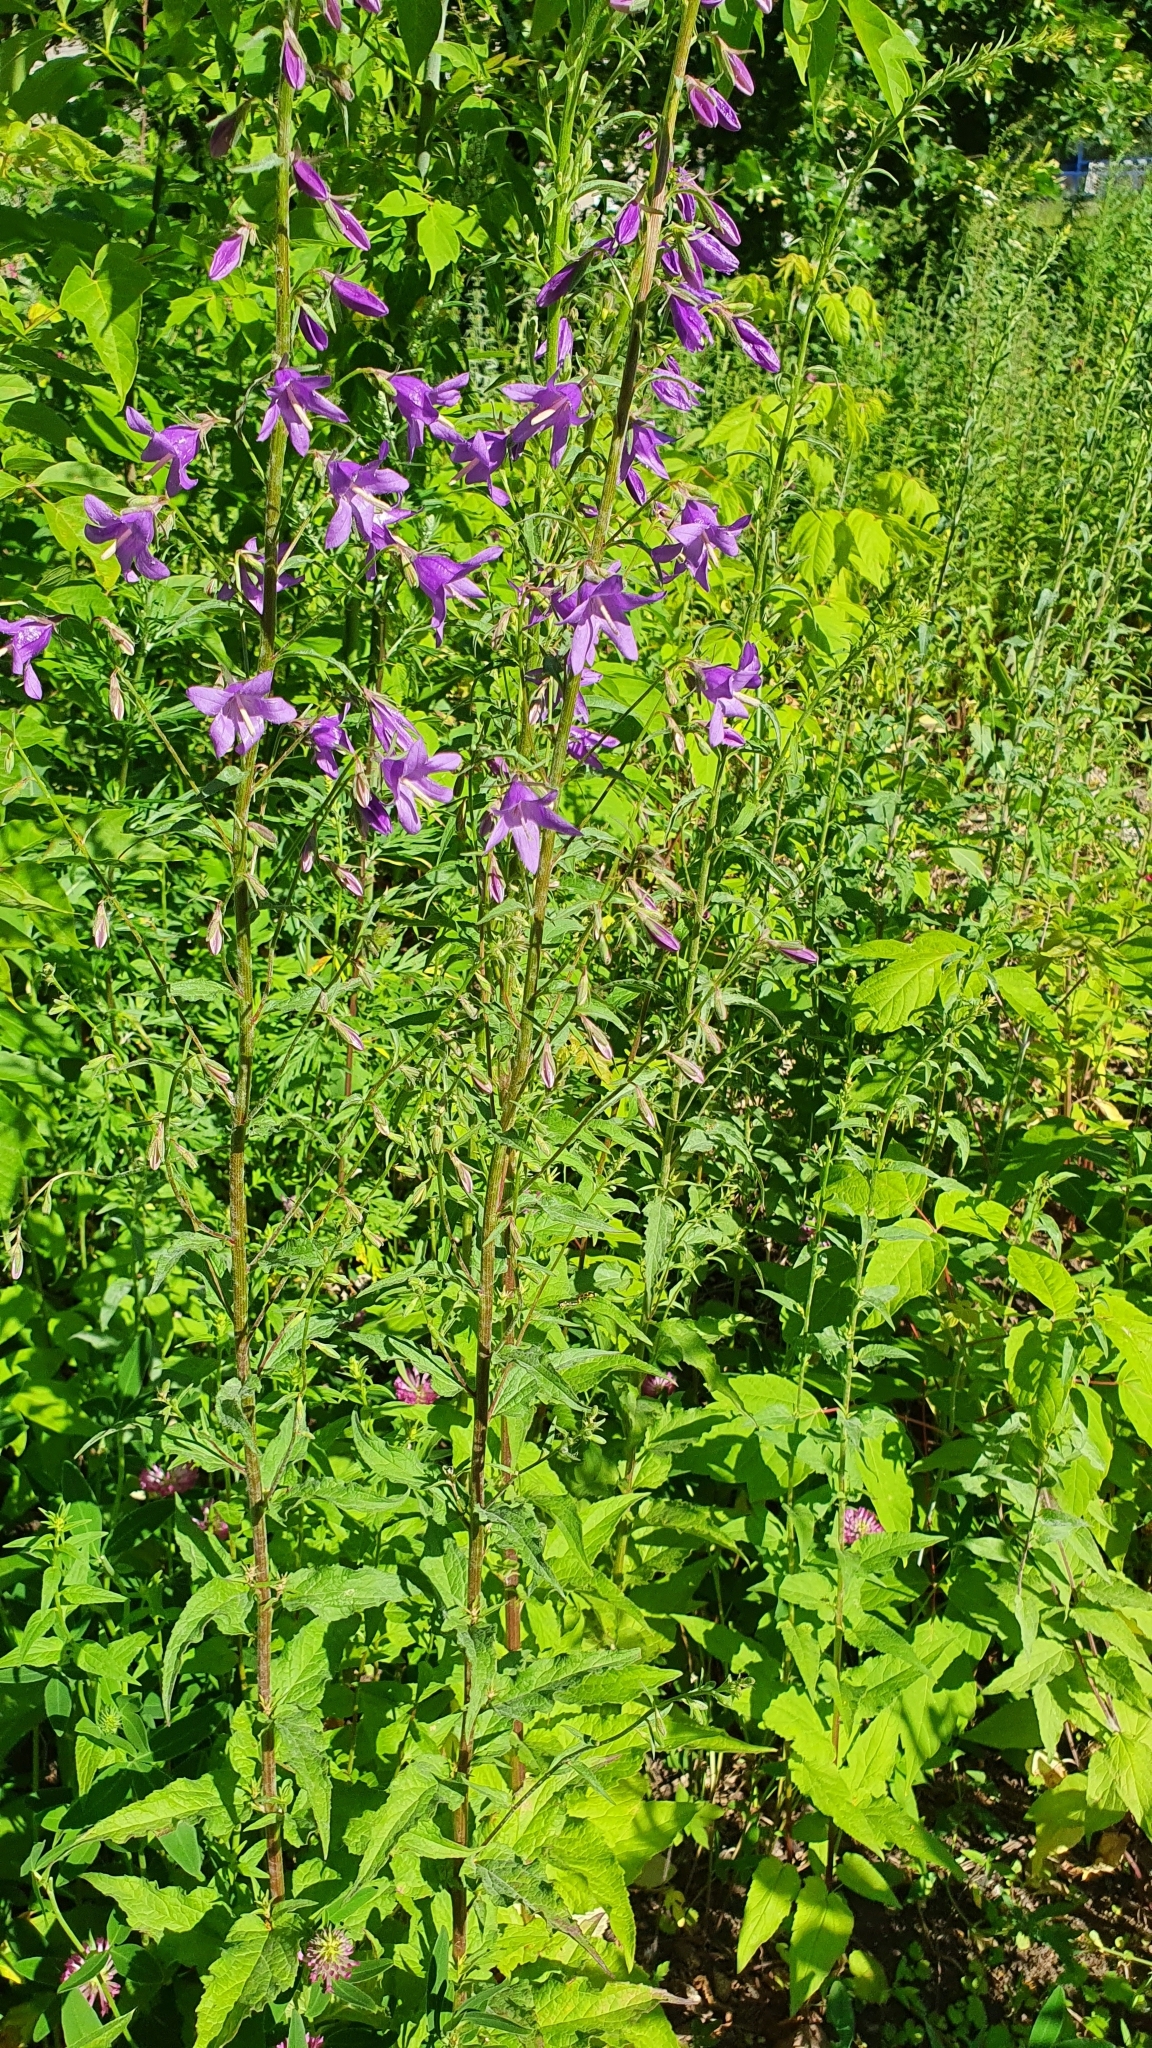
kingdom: Plantae
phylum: Tracheophyta
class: Magnoliopsida
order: Asterales
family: Campanulaceae
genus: Campanula
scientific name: Campanula spryginii
